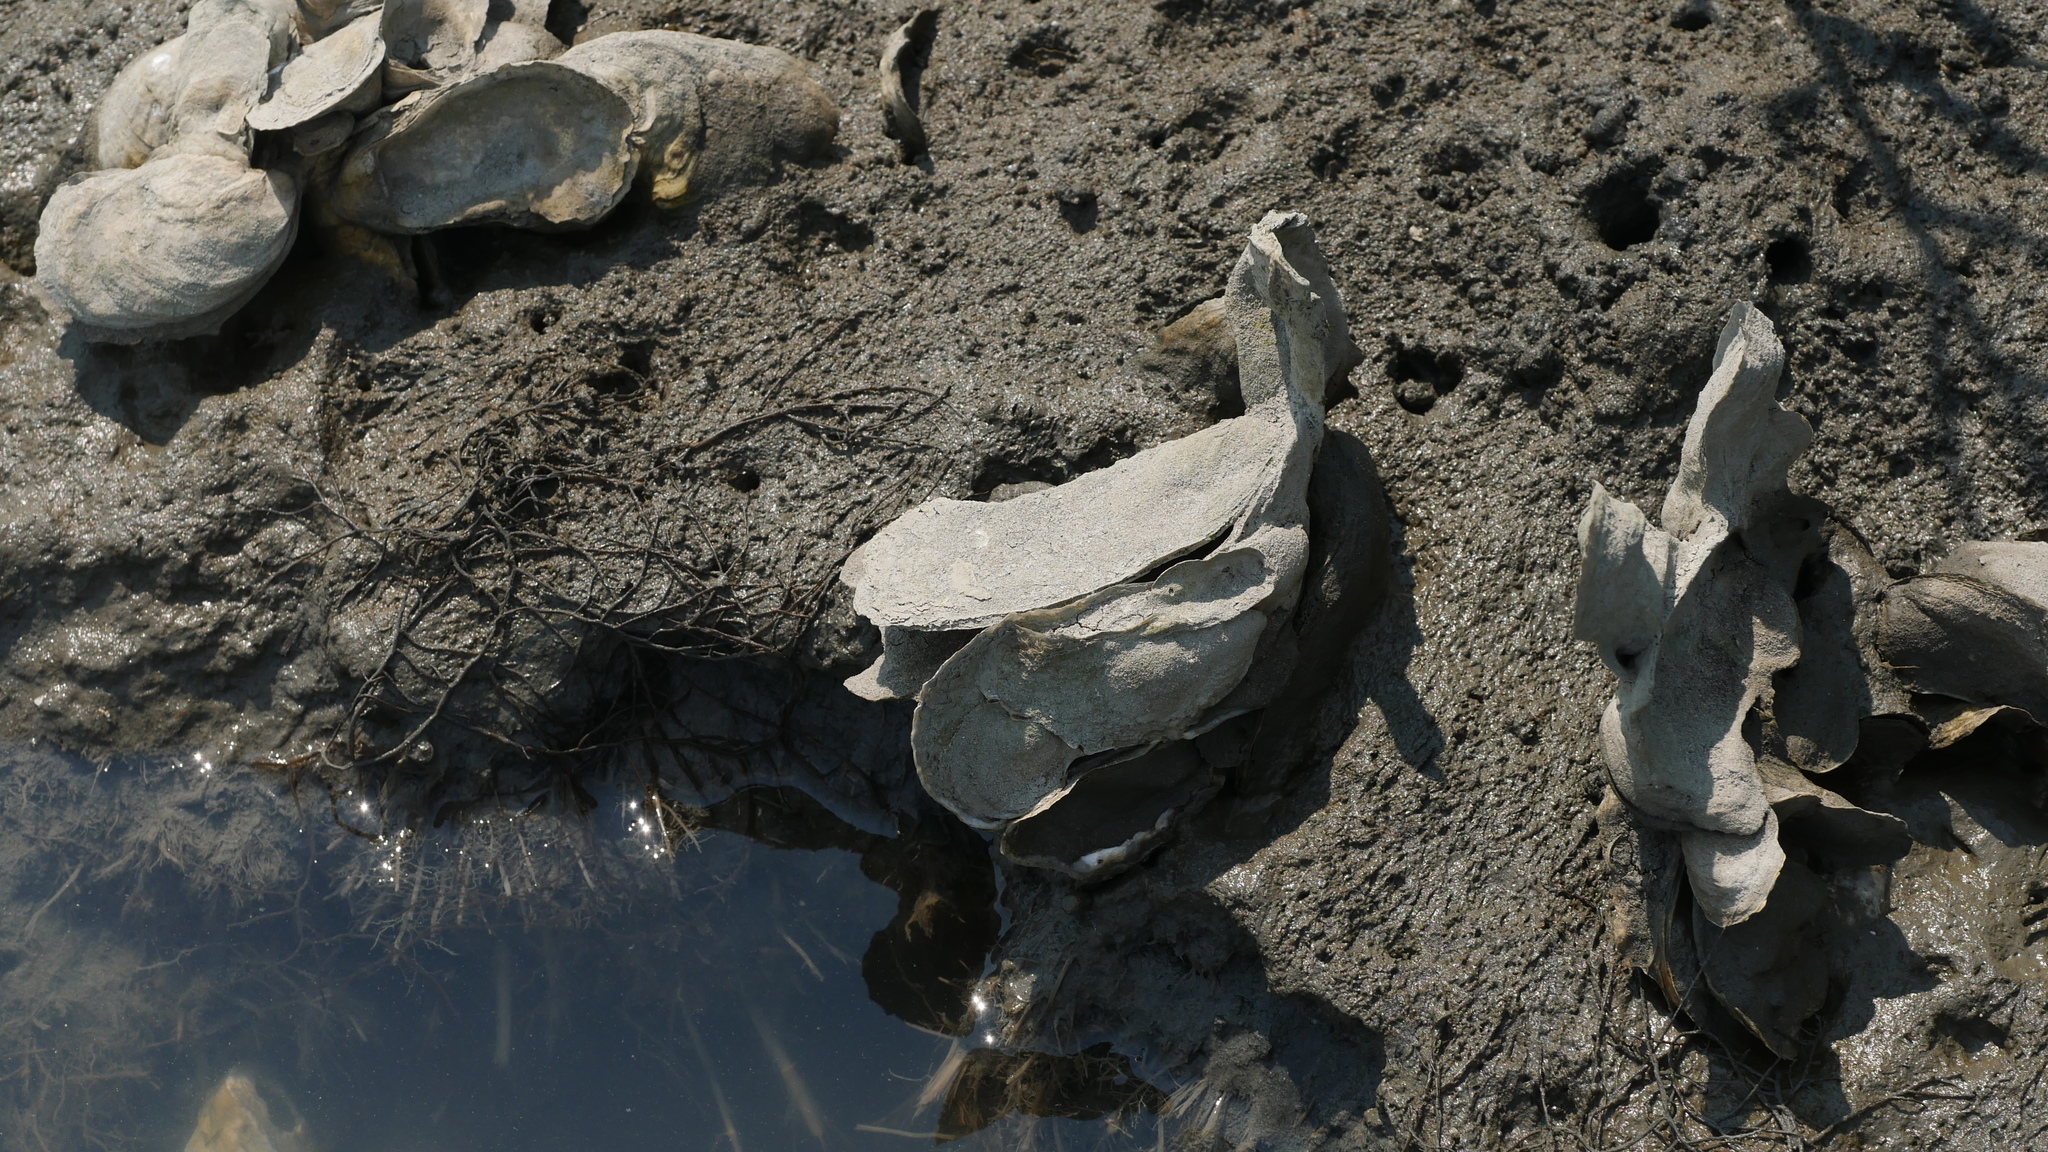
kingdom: Animalia
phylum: Mollusca
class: Bivalvia
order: Ostreida
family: Ostreidae
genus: Crassostrea
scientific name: Crassostrea virginica
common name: American oyster
